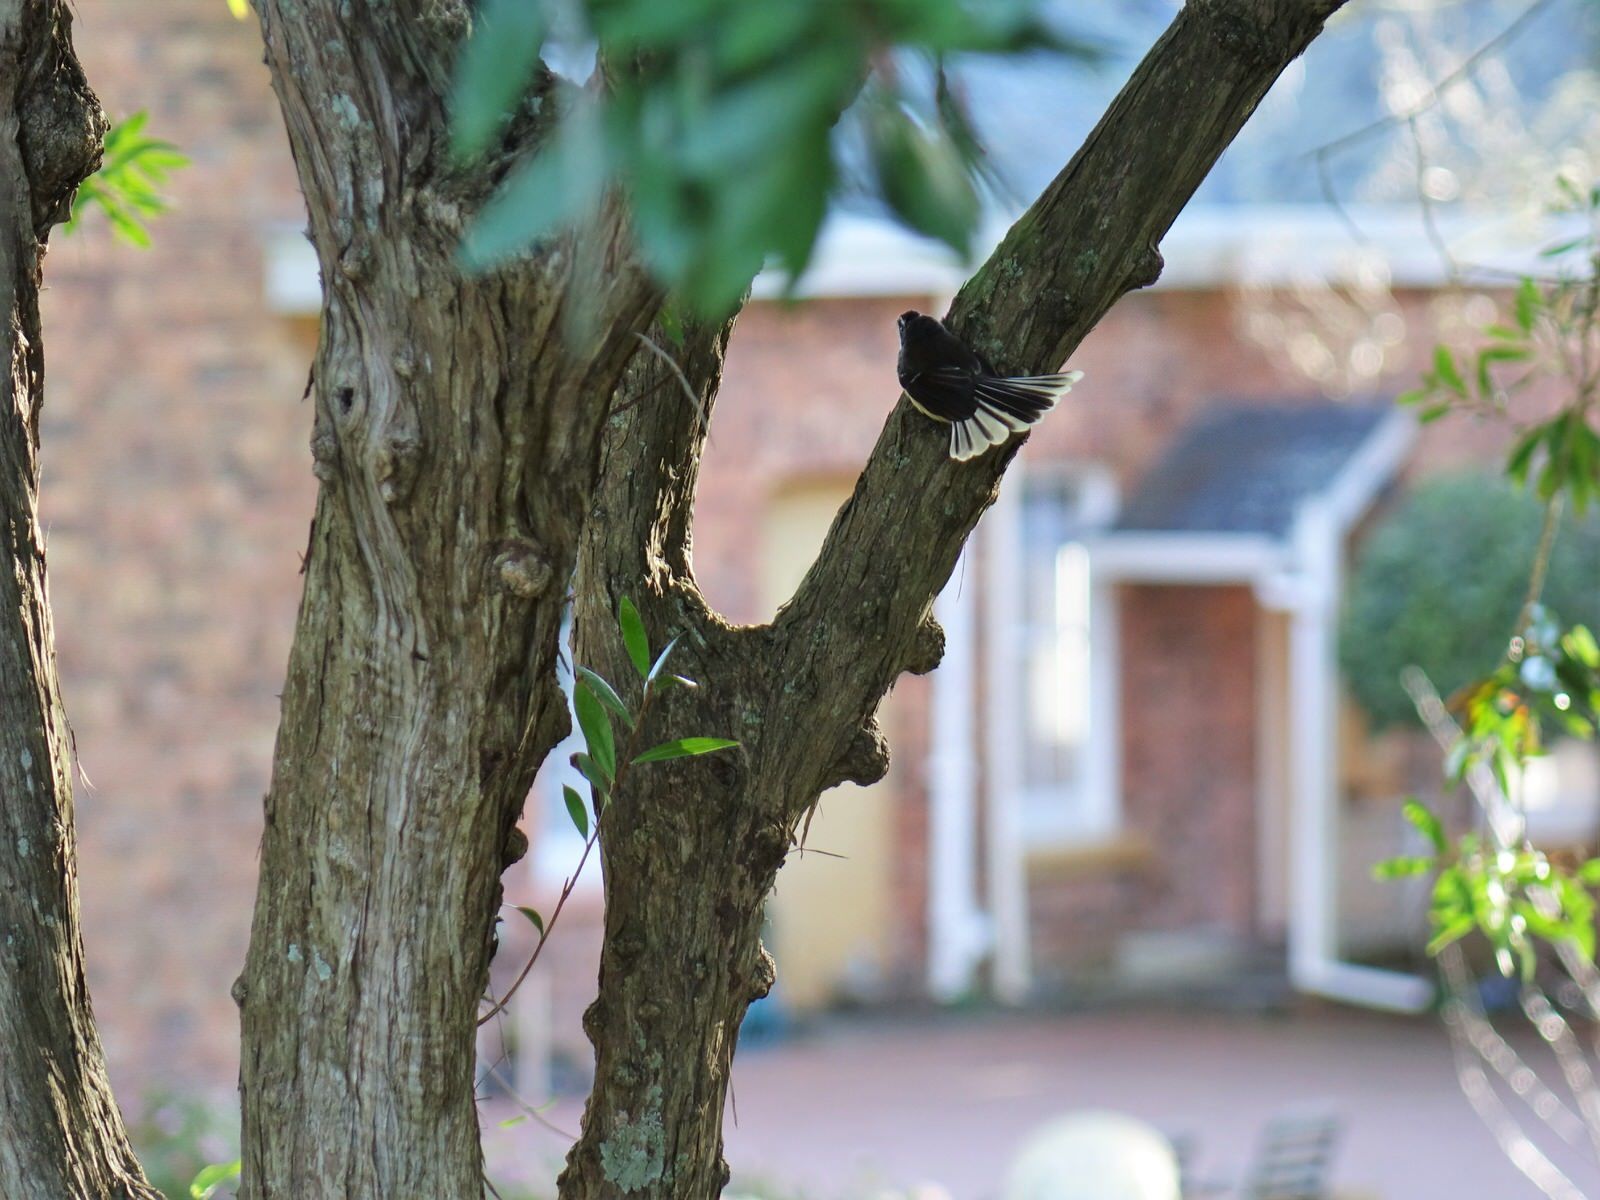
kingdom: Animalia
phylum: Chordata
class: Aves
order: Passeriformes
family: Rhipiduridae
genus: Rhipidura
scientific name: Rhipidura fuliginosa
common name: New zealand fantail
